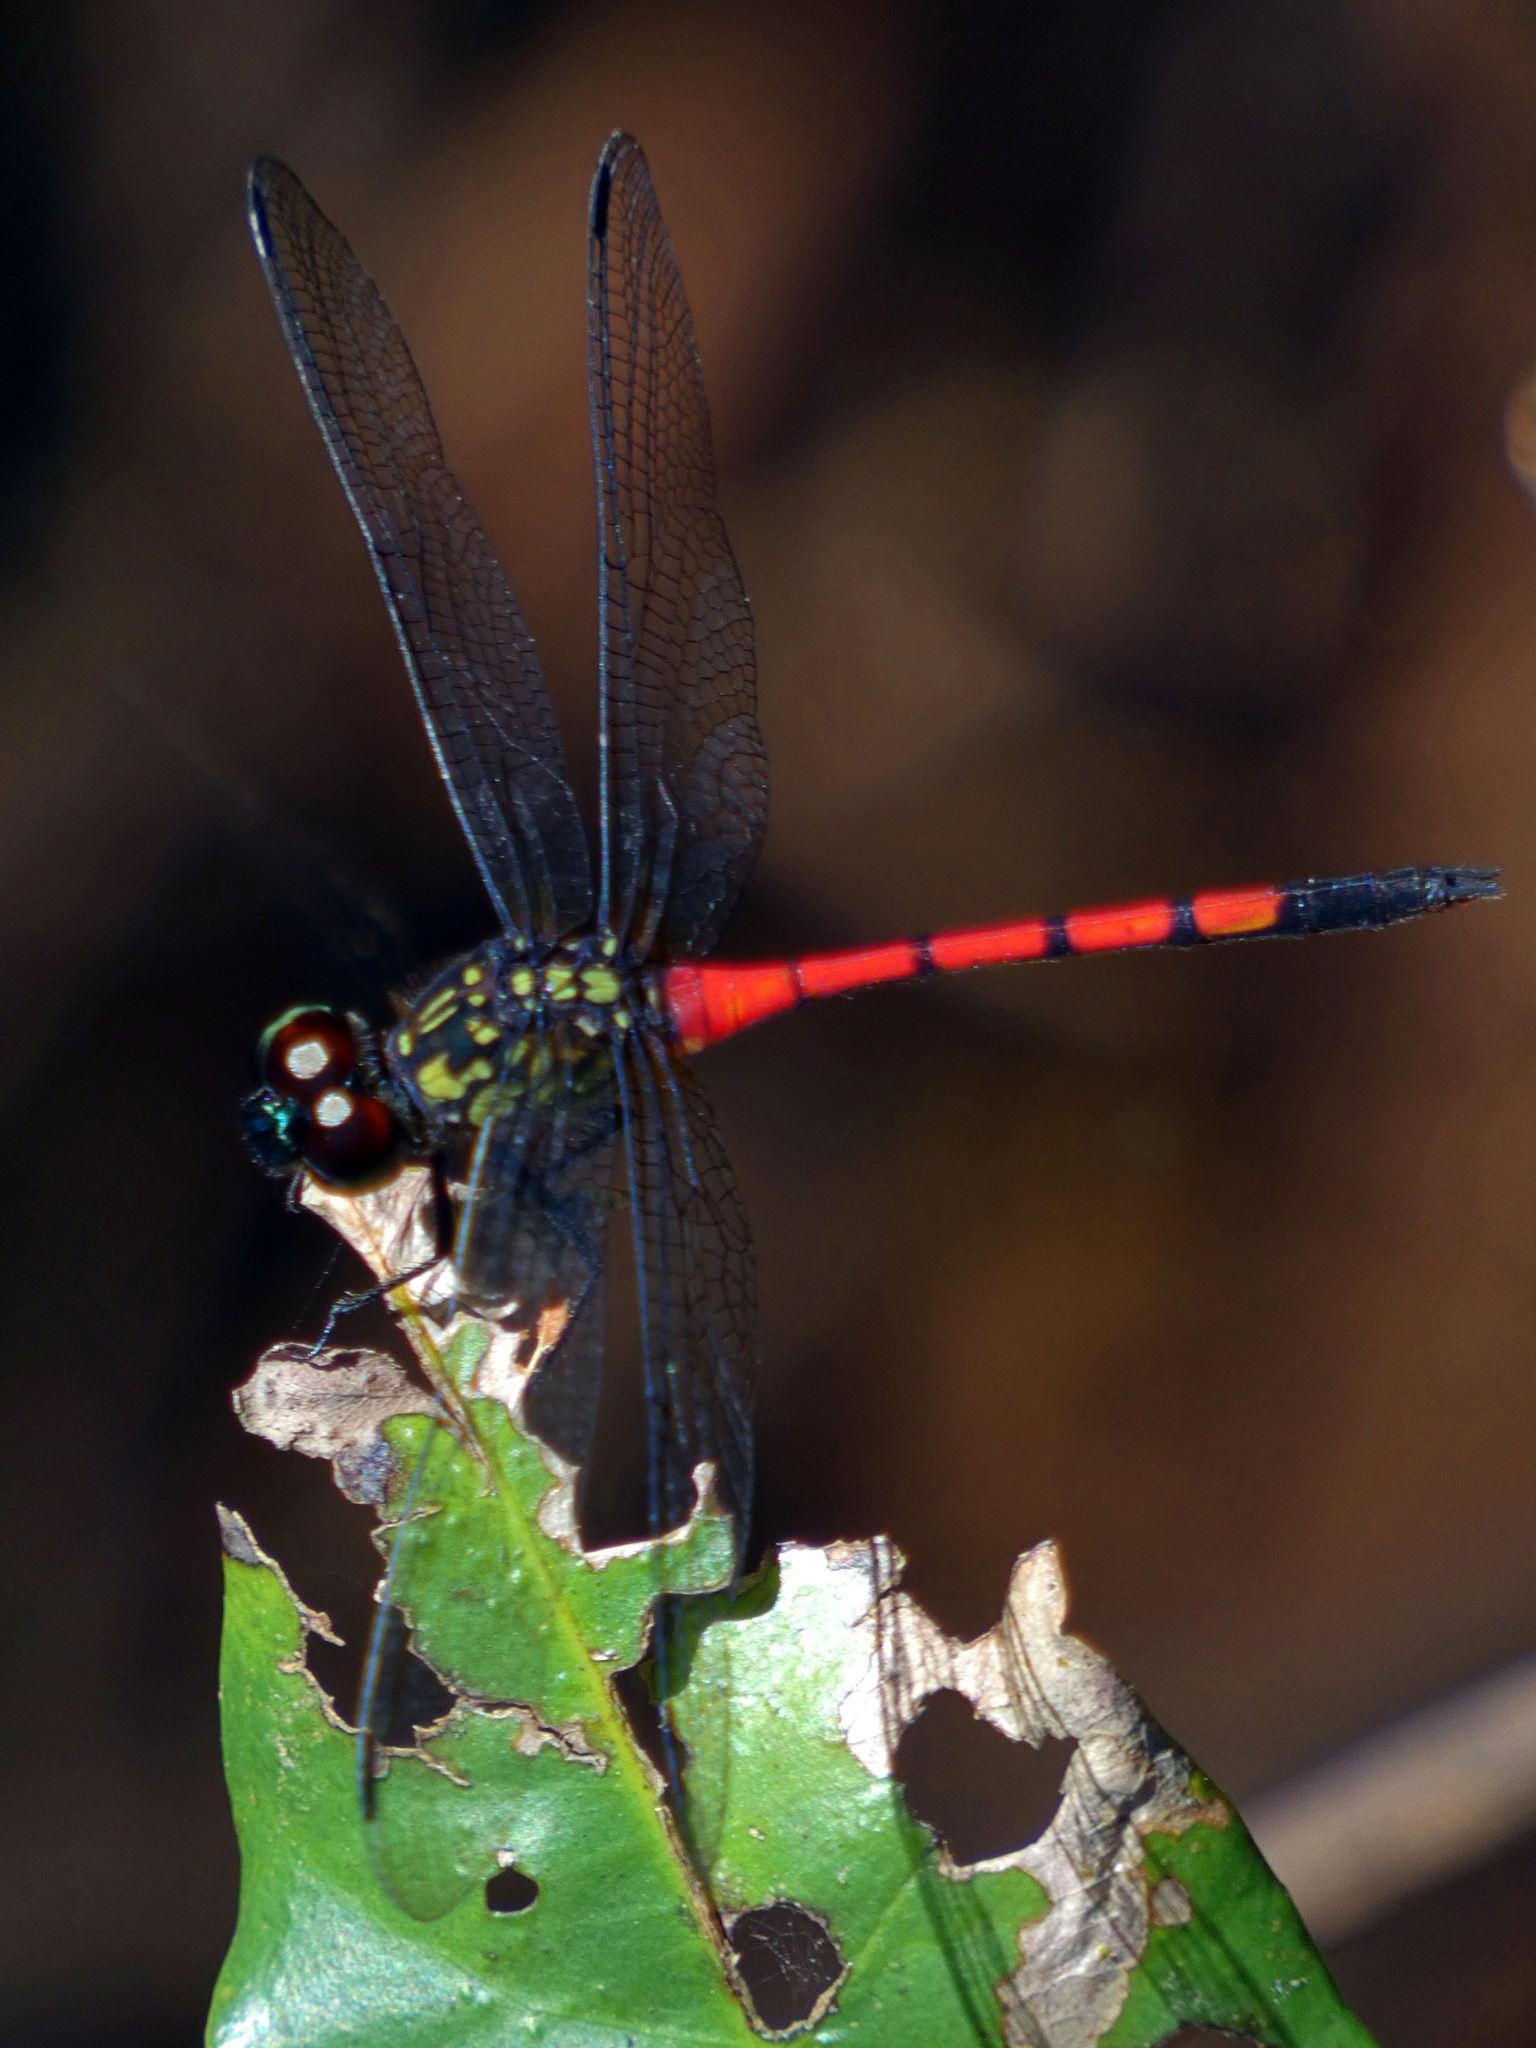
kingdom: Animalia
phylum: Arthropoda
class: Insecta
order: Odonata
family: Libellulidae
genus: Agrionoptera
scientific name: Agrionoptera insignis
